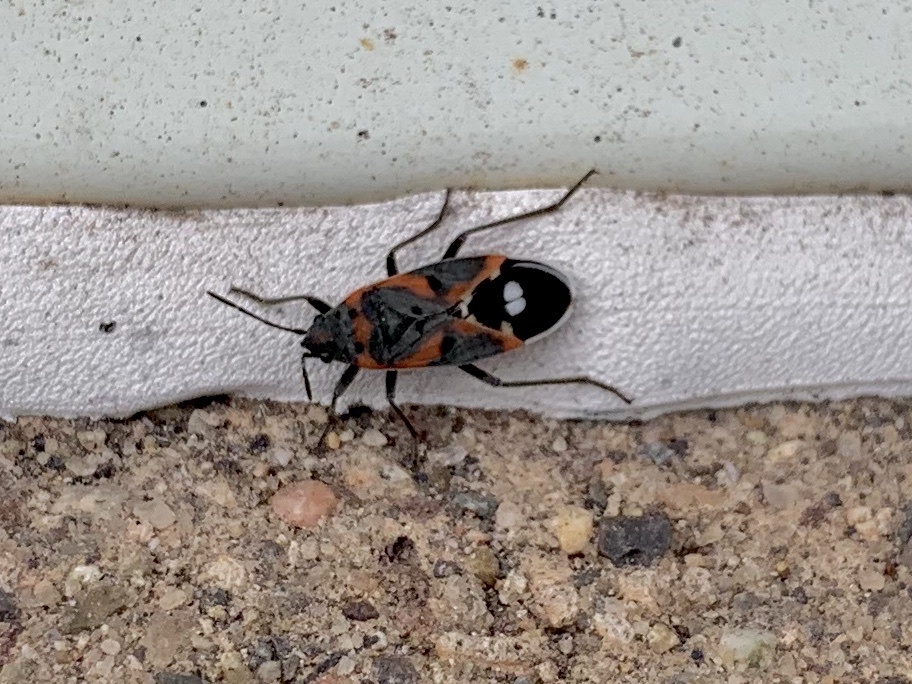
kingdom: Animalia
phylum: Arthropoda
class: Insecta
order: Hemiptera
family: Lygaeidae
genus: Lygaeus
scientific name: Lygaeus kalmii
